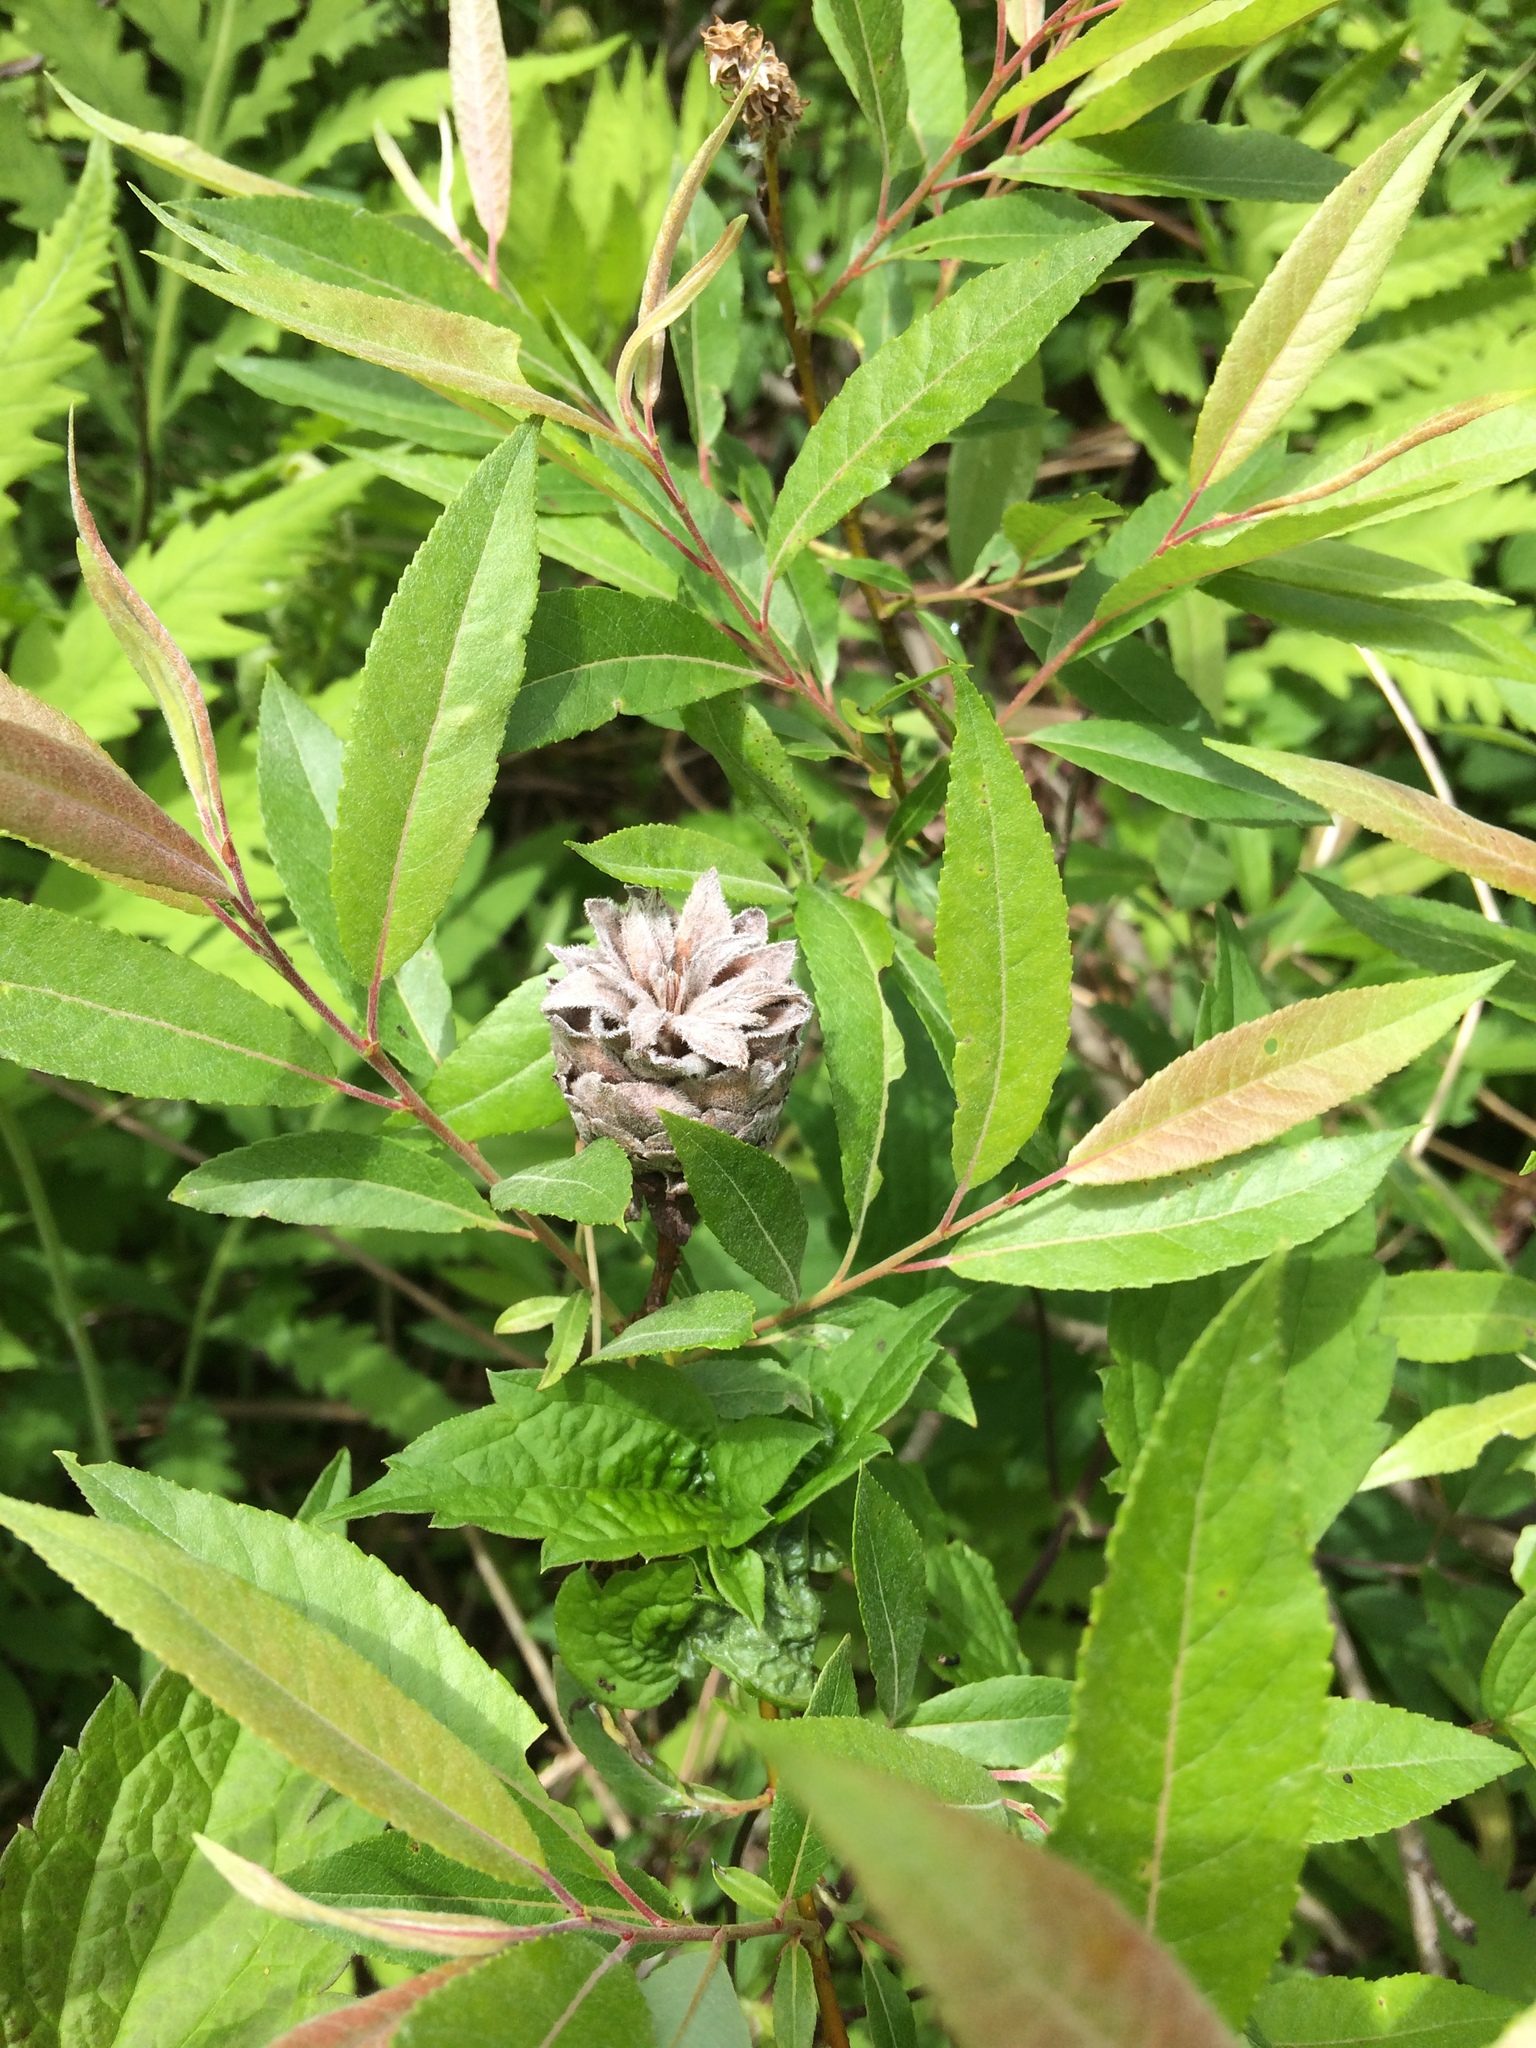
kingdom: Animalia
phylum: Arthropoda
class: Insecta
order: Diptera
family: Cecidomyiidae
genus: Rabdophaga
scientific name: Rabdophaga strobiloides
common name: Willow pinecone gall midge
